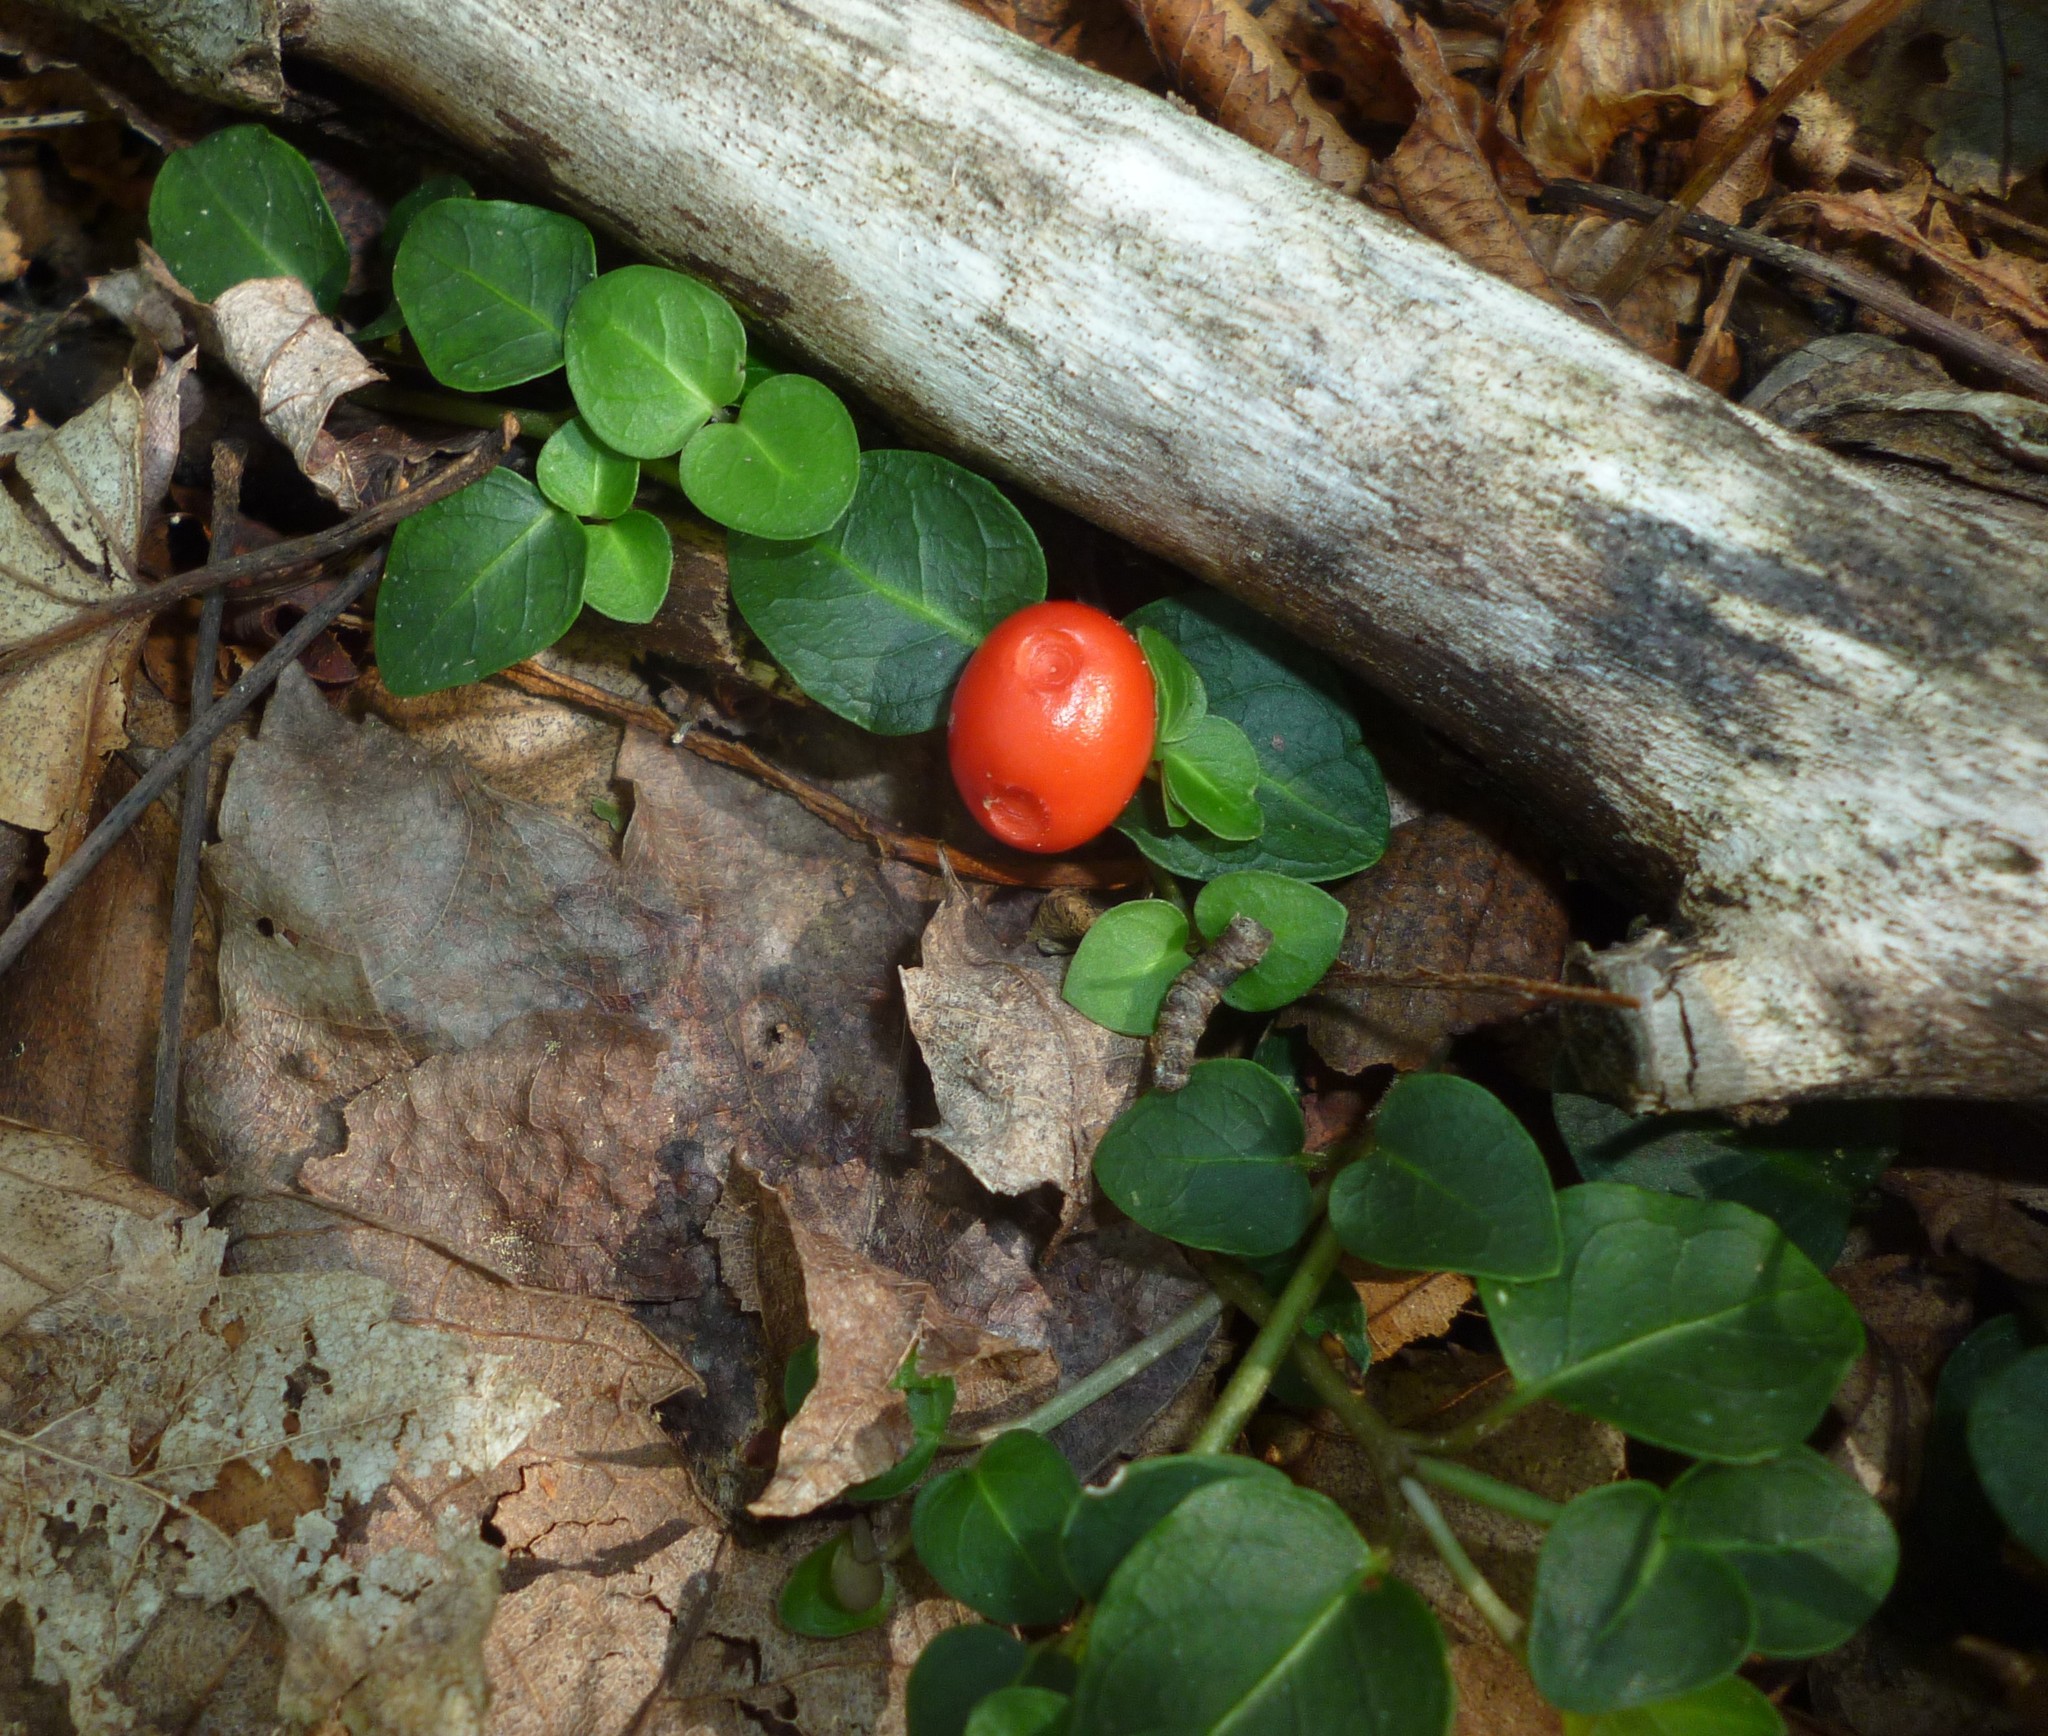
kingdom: Plantae
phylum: Tracheophyta
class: Magnoliopsida
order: Gentianales
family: Rubiaceae
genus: Mitchella
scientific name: Mitchella repens
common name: Partridge-berry
